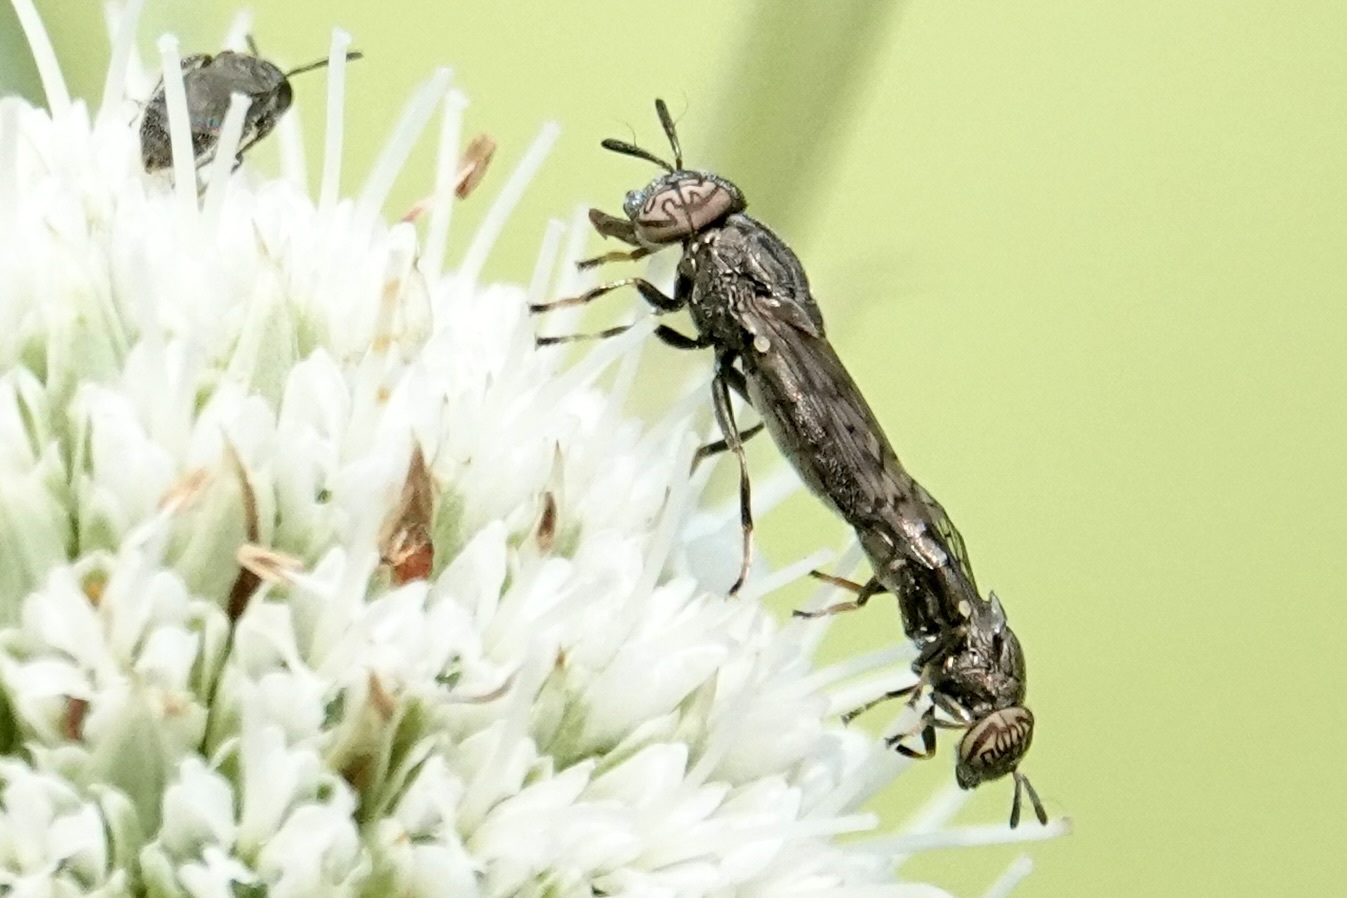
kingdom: Animalia
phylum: Arthropoda
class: Insecta
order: Diptera
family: Syrphidae
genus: Orthonevra
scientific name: Orthonevra nitida
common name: Wavy mucksucker
